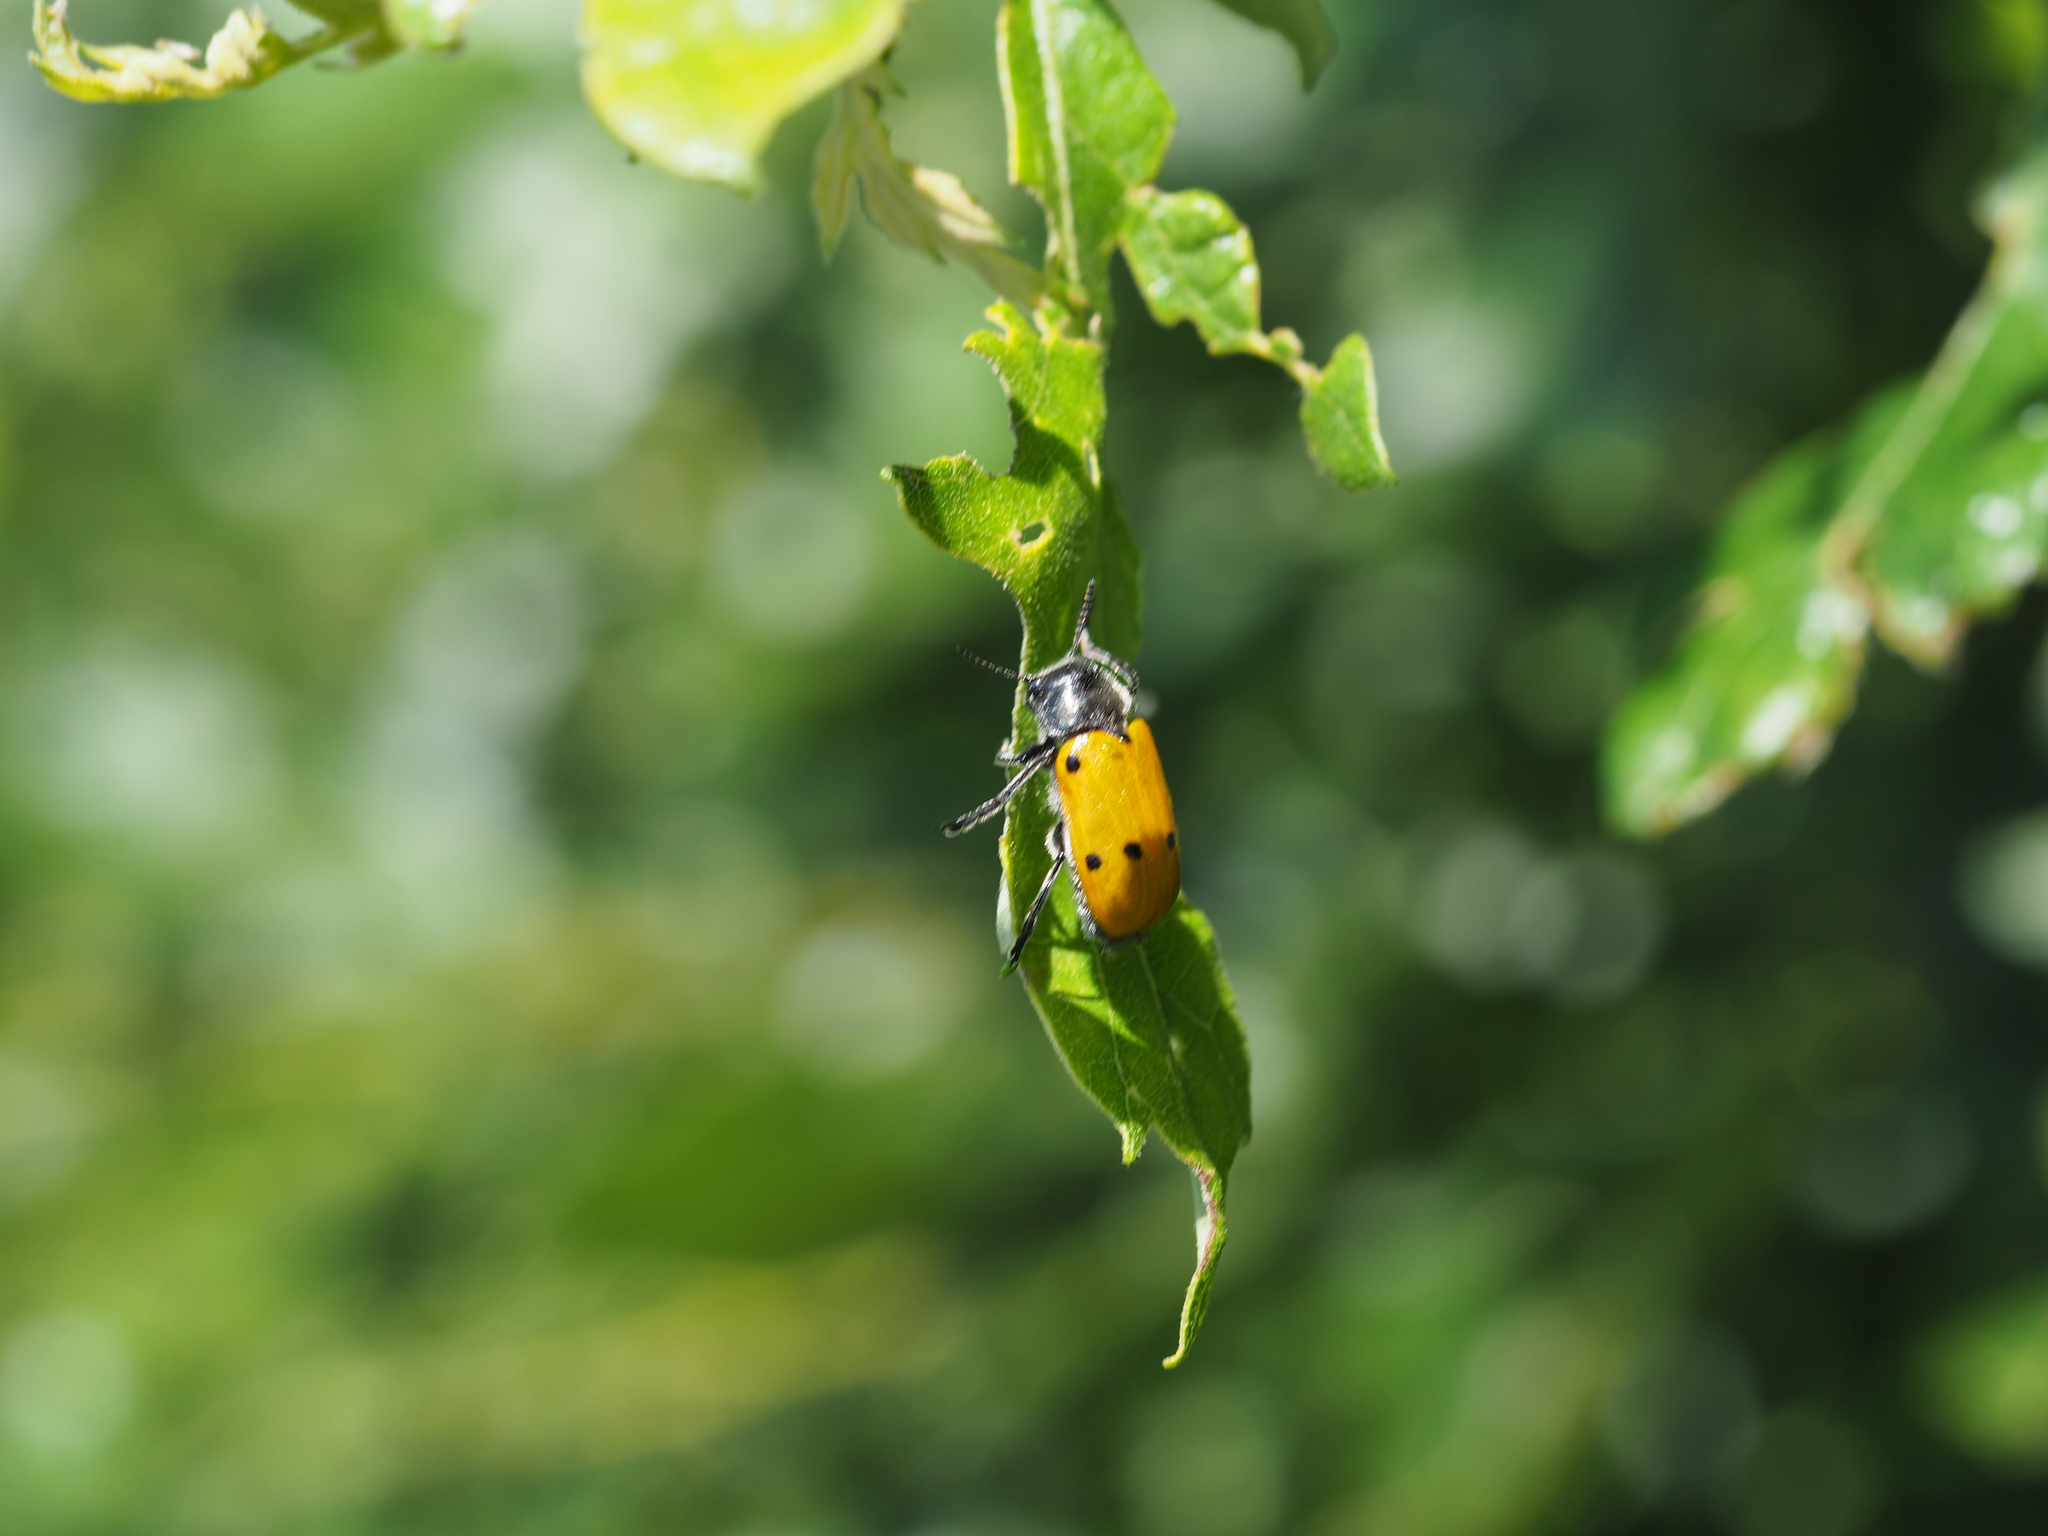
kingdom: Animalia
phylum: Arthropoda
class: Insecta
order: Coleoptera
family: Chrysomelidae
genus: Lachnaia
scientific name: Lachnaia sexpunctata
